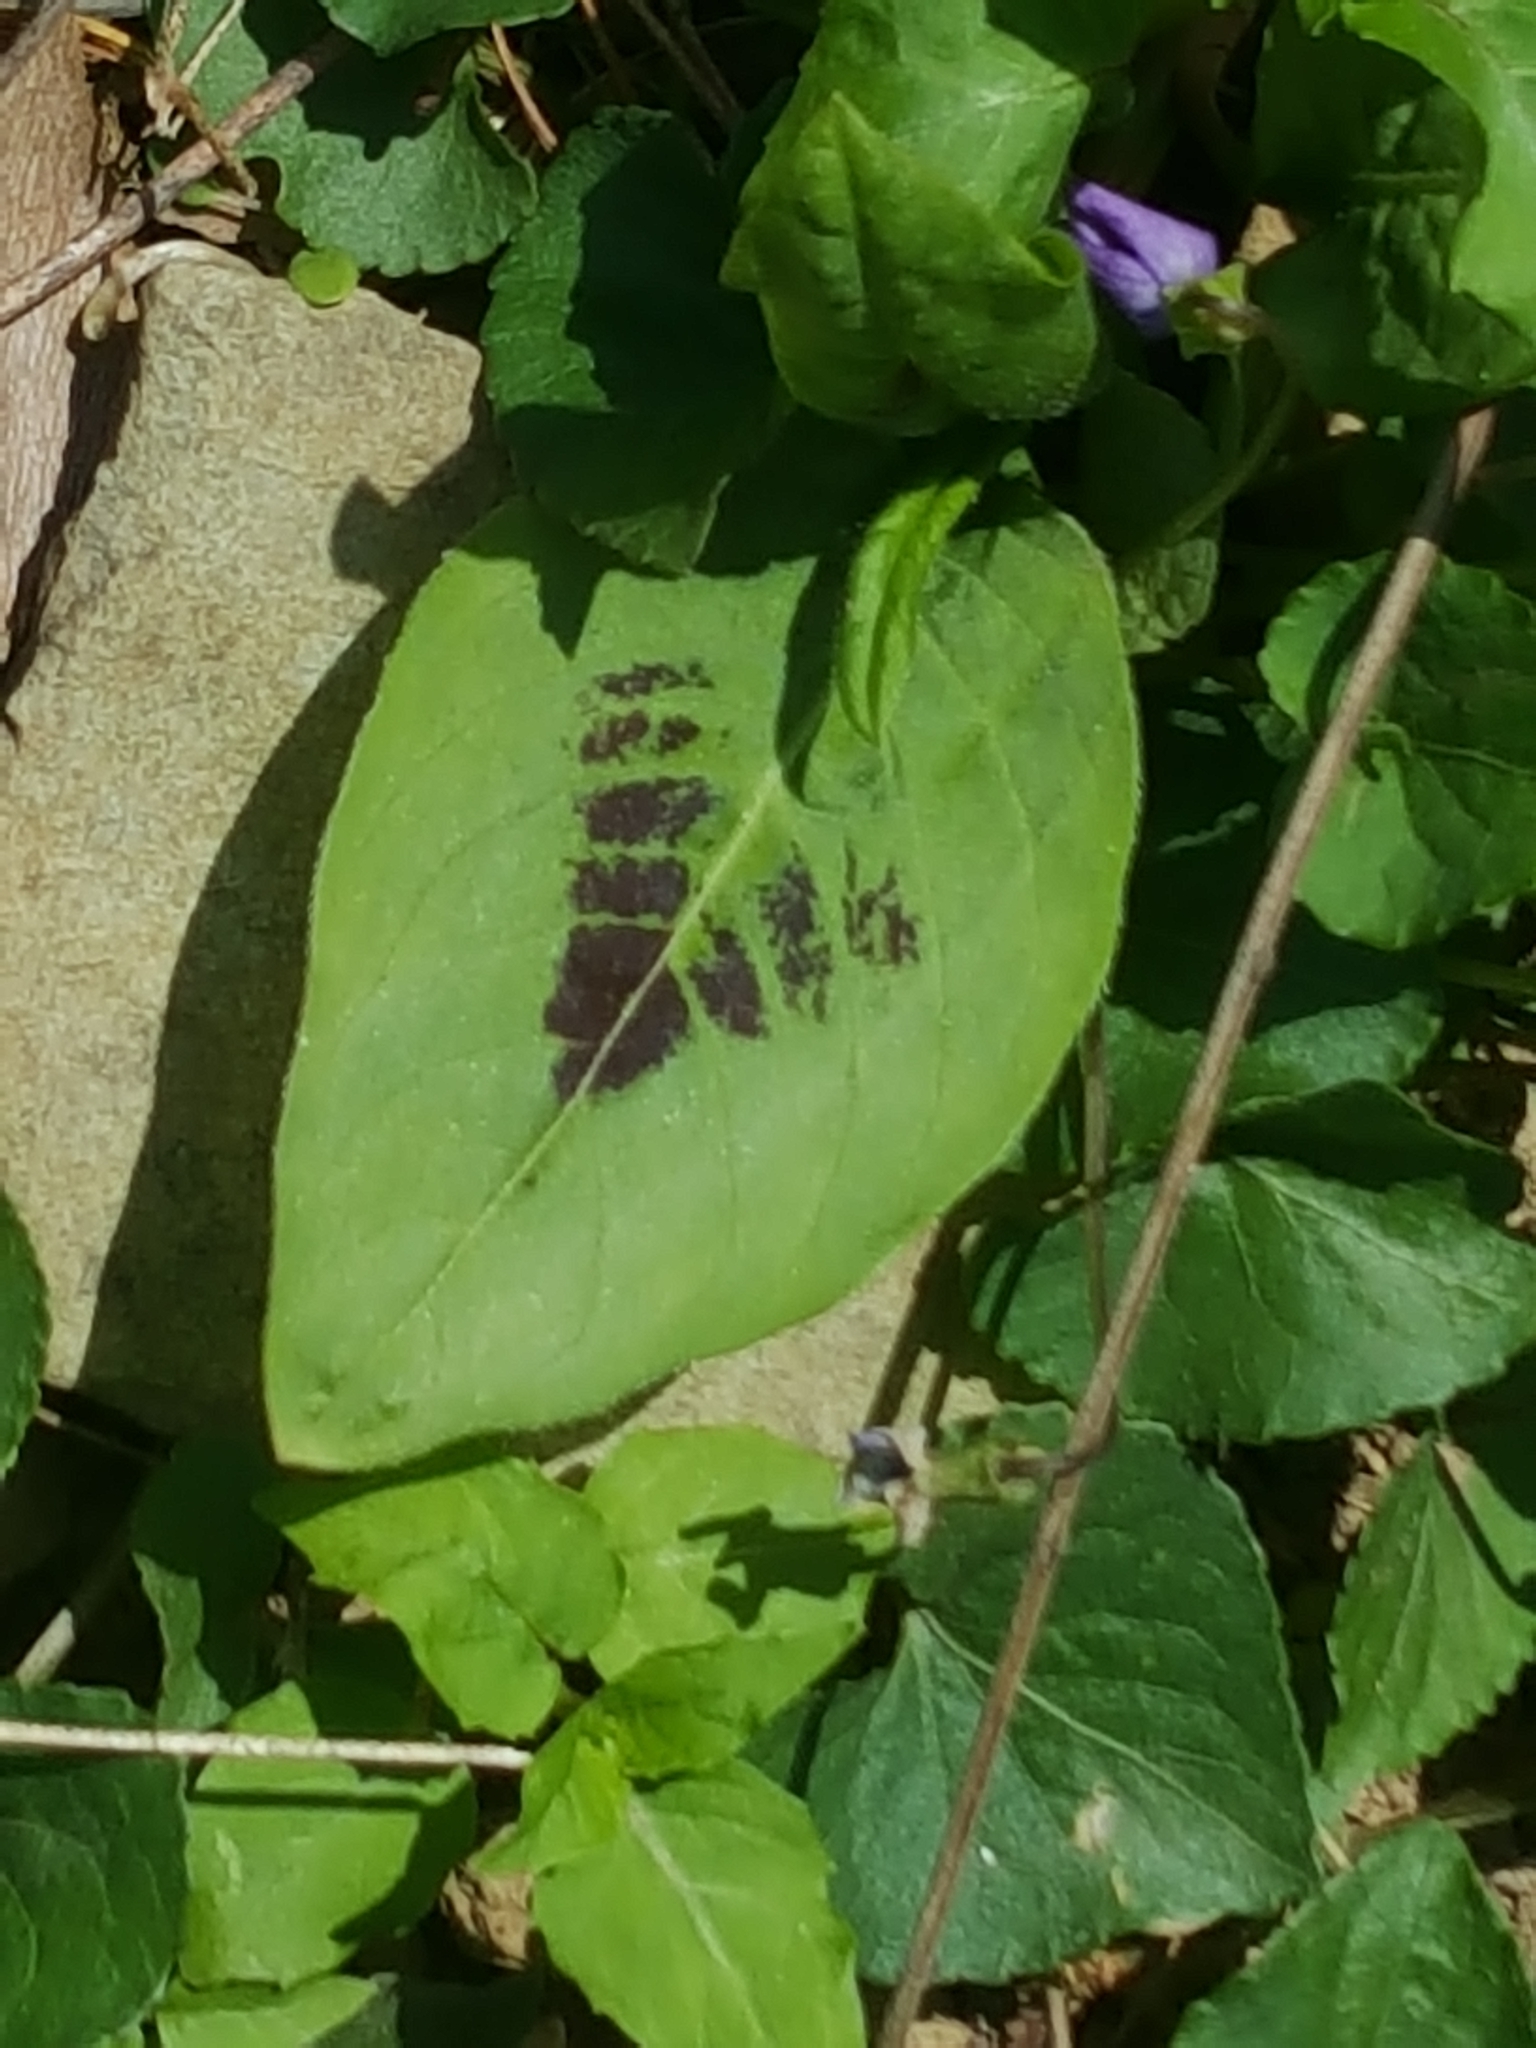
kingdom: Plantae
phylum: Tracheophyta
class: Magnoliopsida
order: Caryophyllales
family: Polygonaceae
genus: Persicaria
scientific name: Persicaria virginiana
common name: Jumpseed
